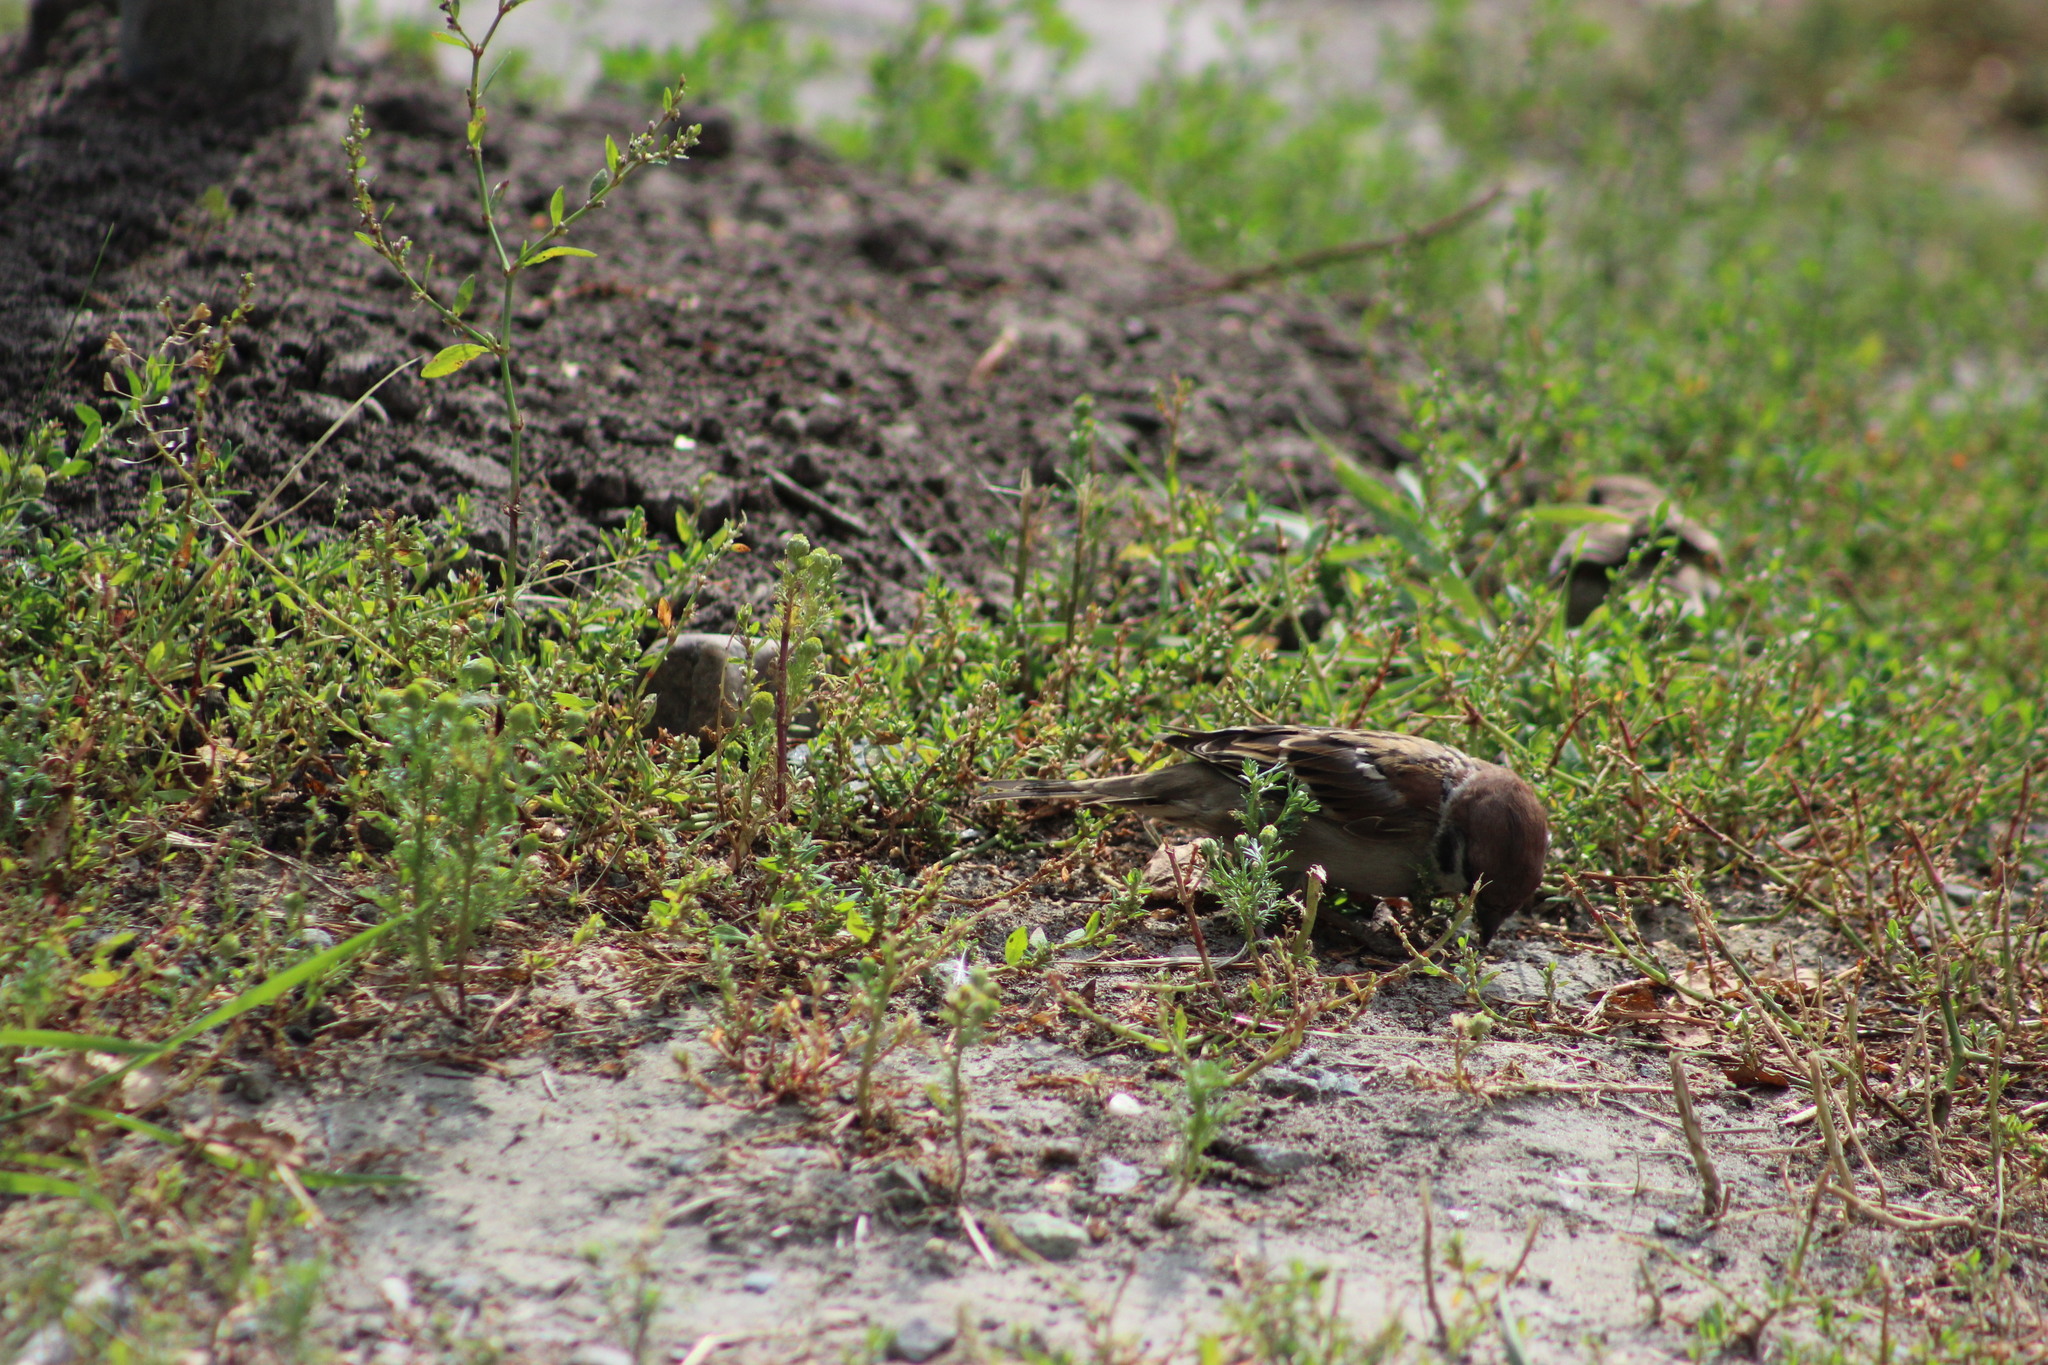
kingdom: Animalia
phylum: Chordata
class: Aves
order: Passeriformes
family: Passeridae
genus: Passer
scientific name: Passer montanus
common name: Eurasian tree sparrow
